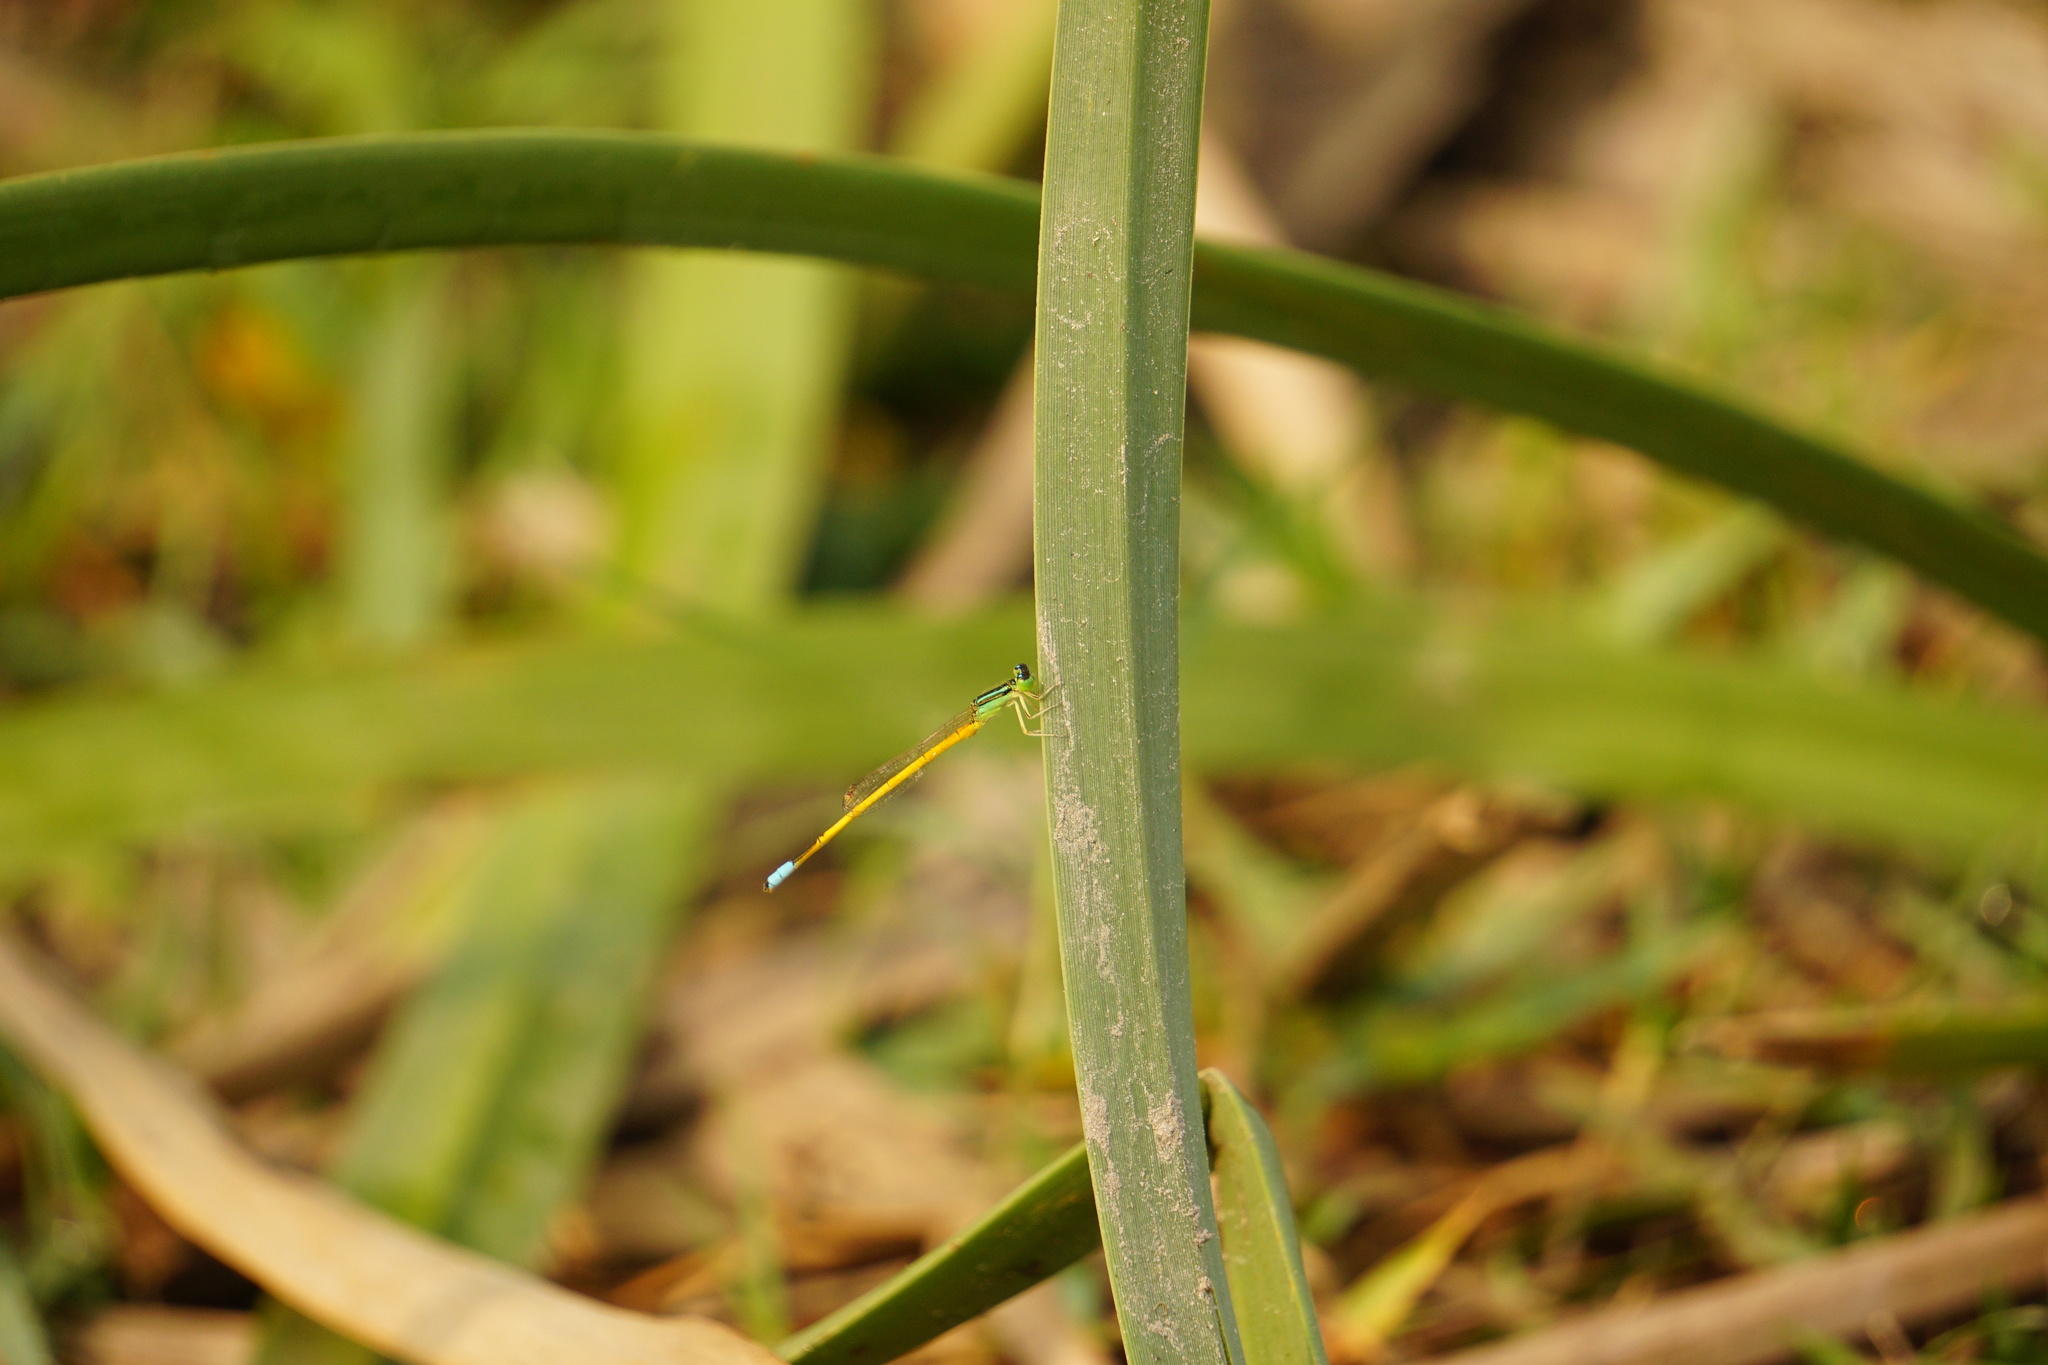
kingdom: Animalia
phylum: Arthropoda
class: Insecta
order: Odonata
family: Coenagrionidae
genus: Ischnura
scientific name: Ischnura rubilio
